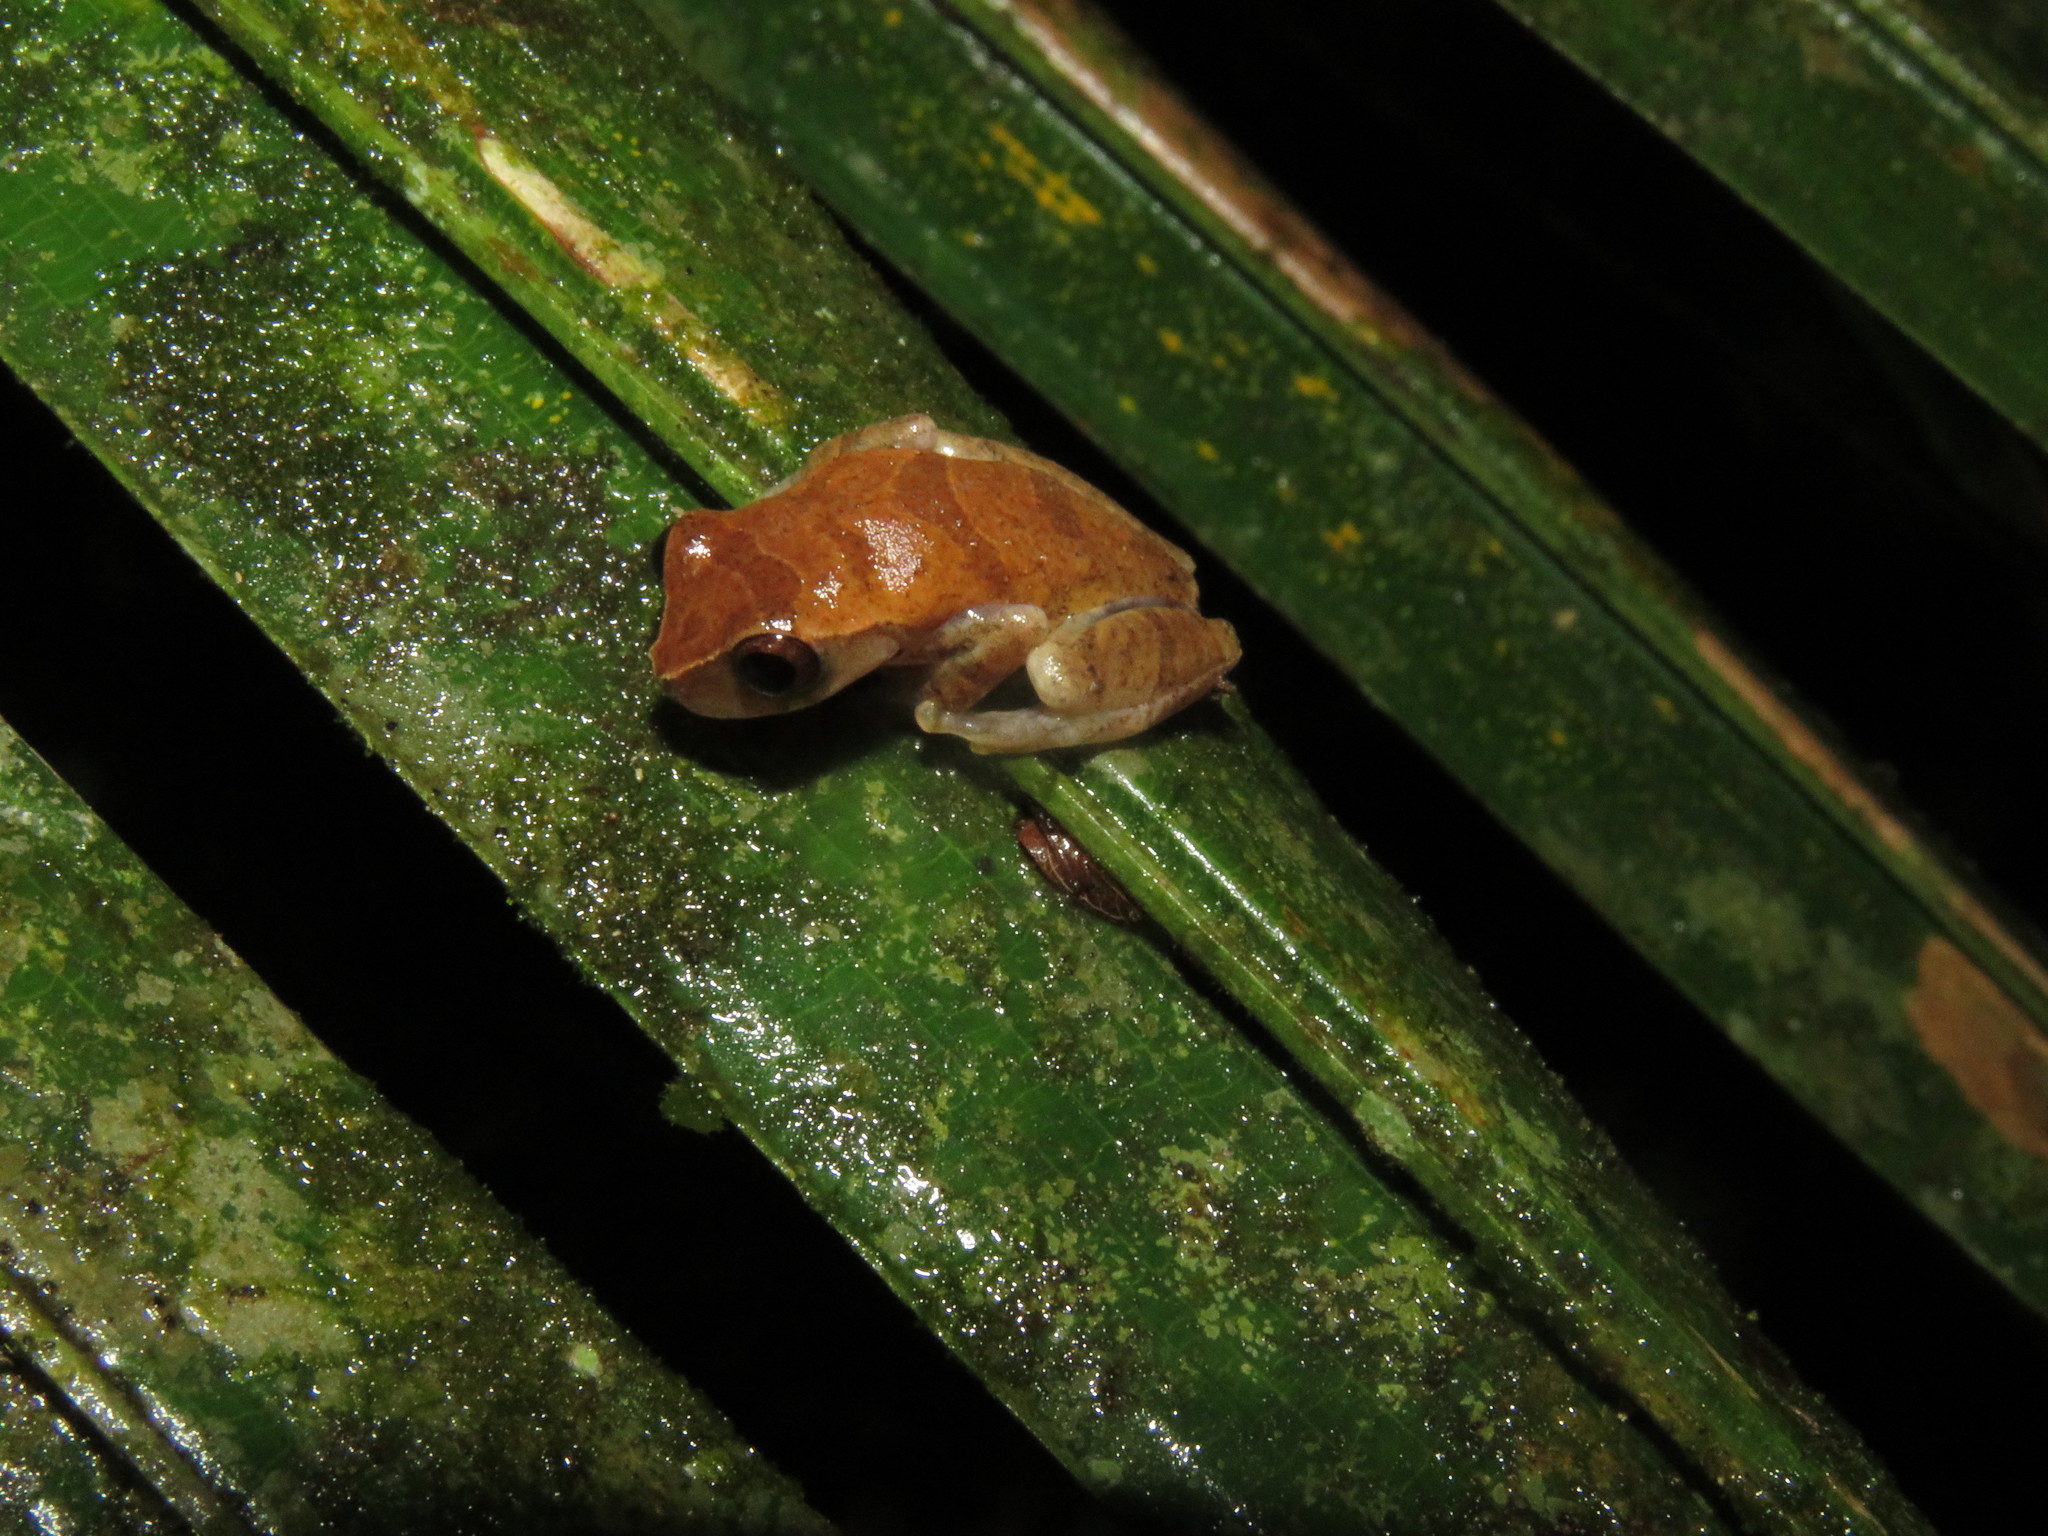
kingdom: Animalia
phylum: Chordata
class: Amphibia
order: Anura
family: Hylidae
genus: Dendropsophus
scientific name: Dendropsophus pauiniensis
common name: Pauini treefrog
